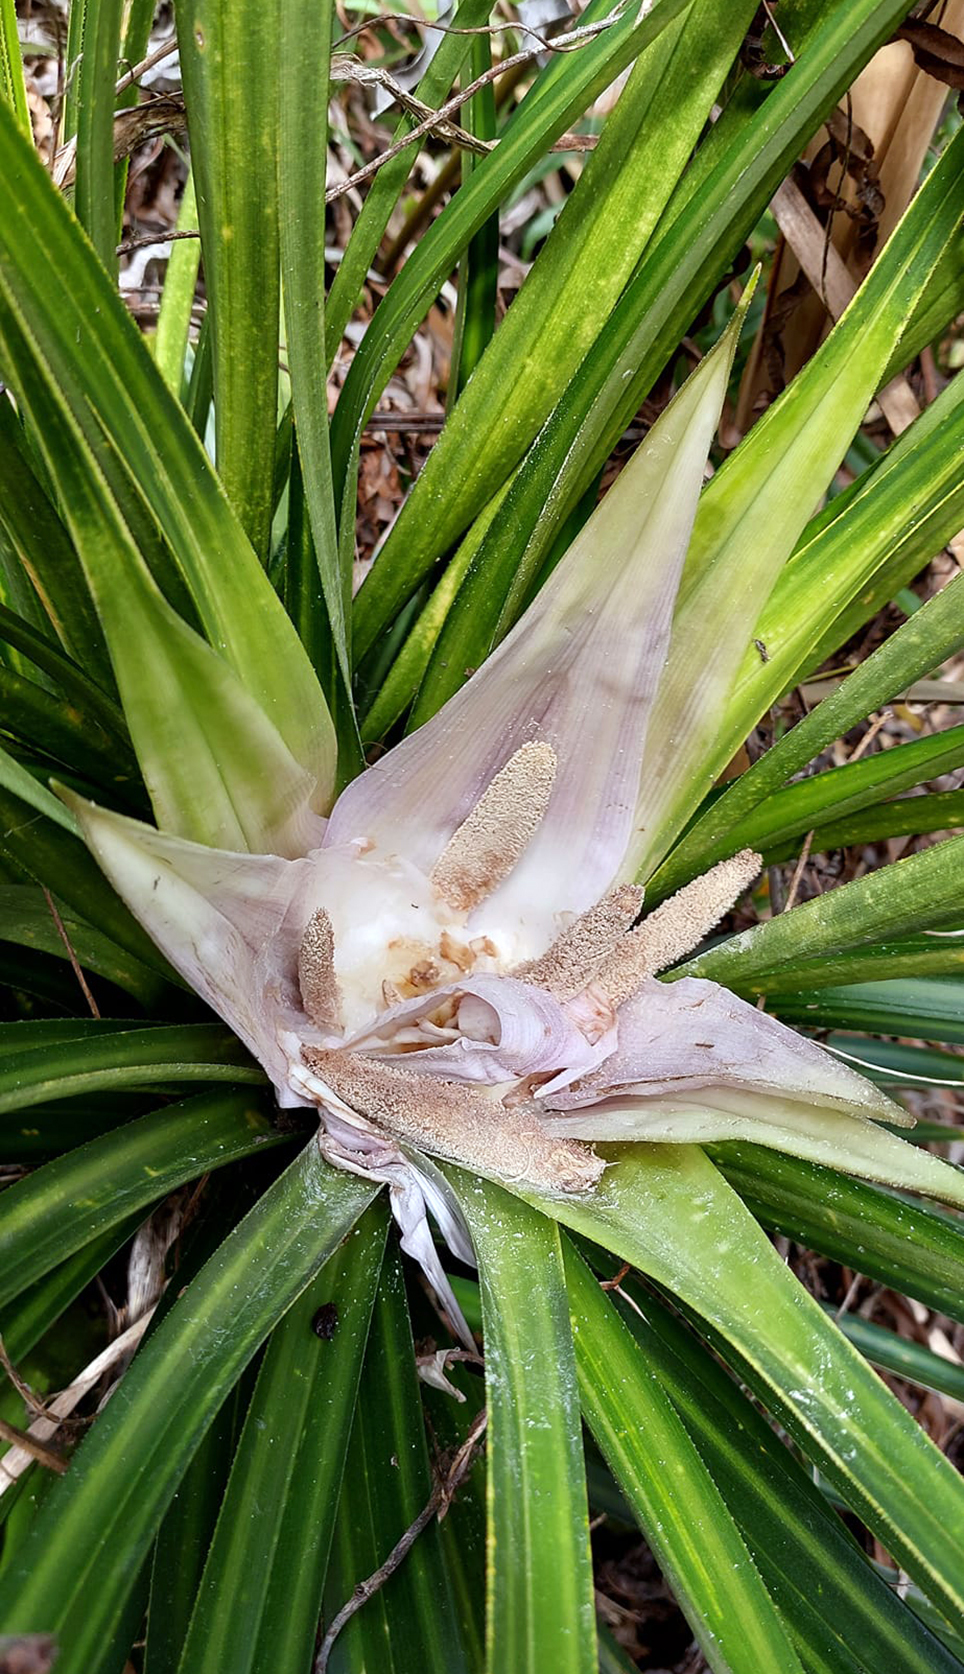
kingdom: Plantae
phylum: Tracheophyta
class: Liliopsida
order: Pandanales
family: Pandanaceae
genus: Freycinetia
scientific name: Freycinetia banksii
